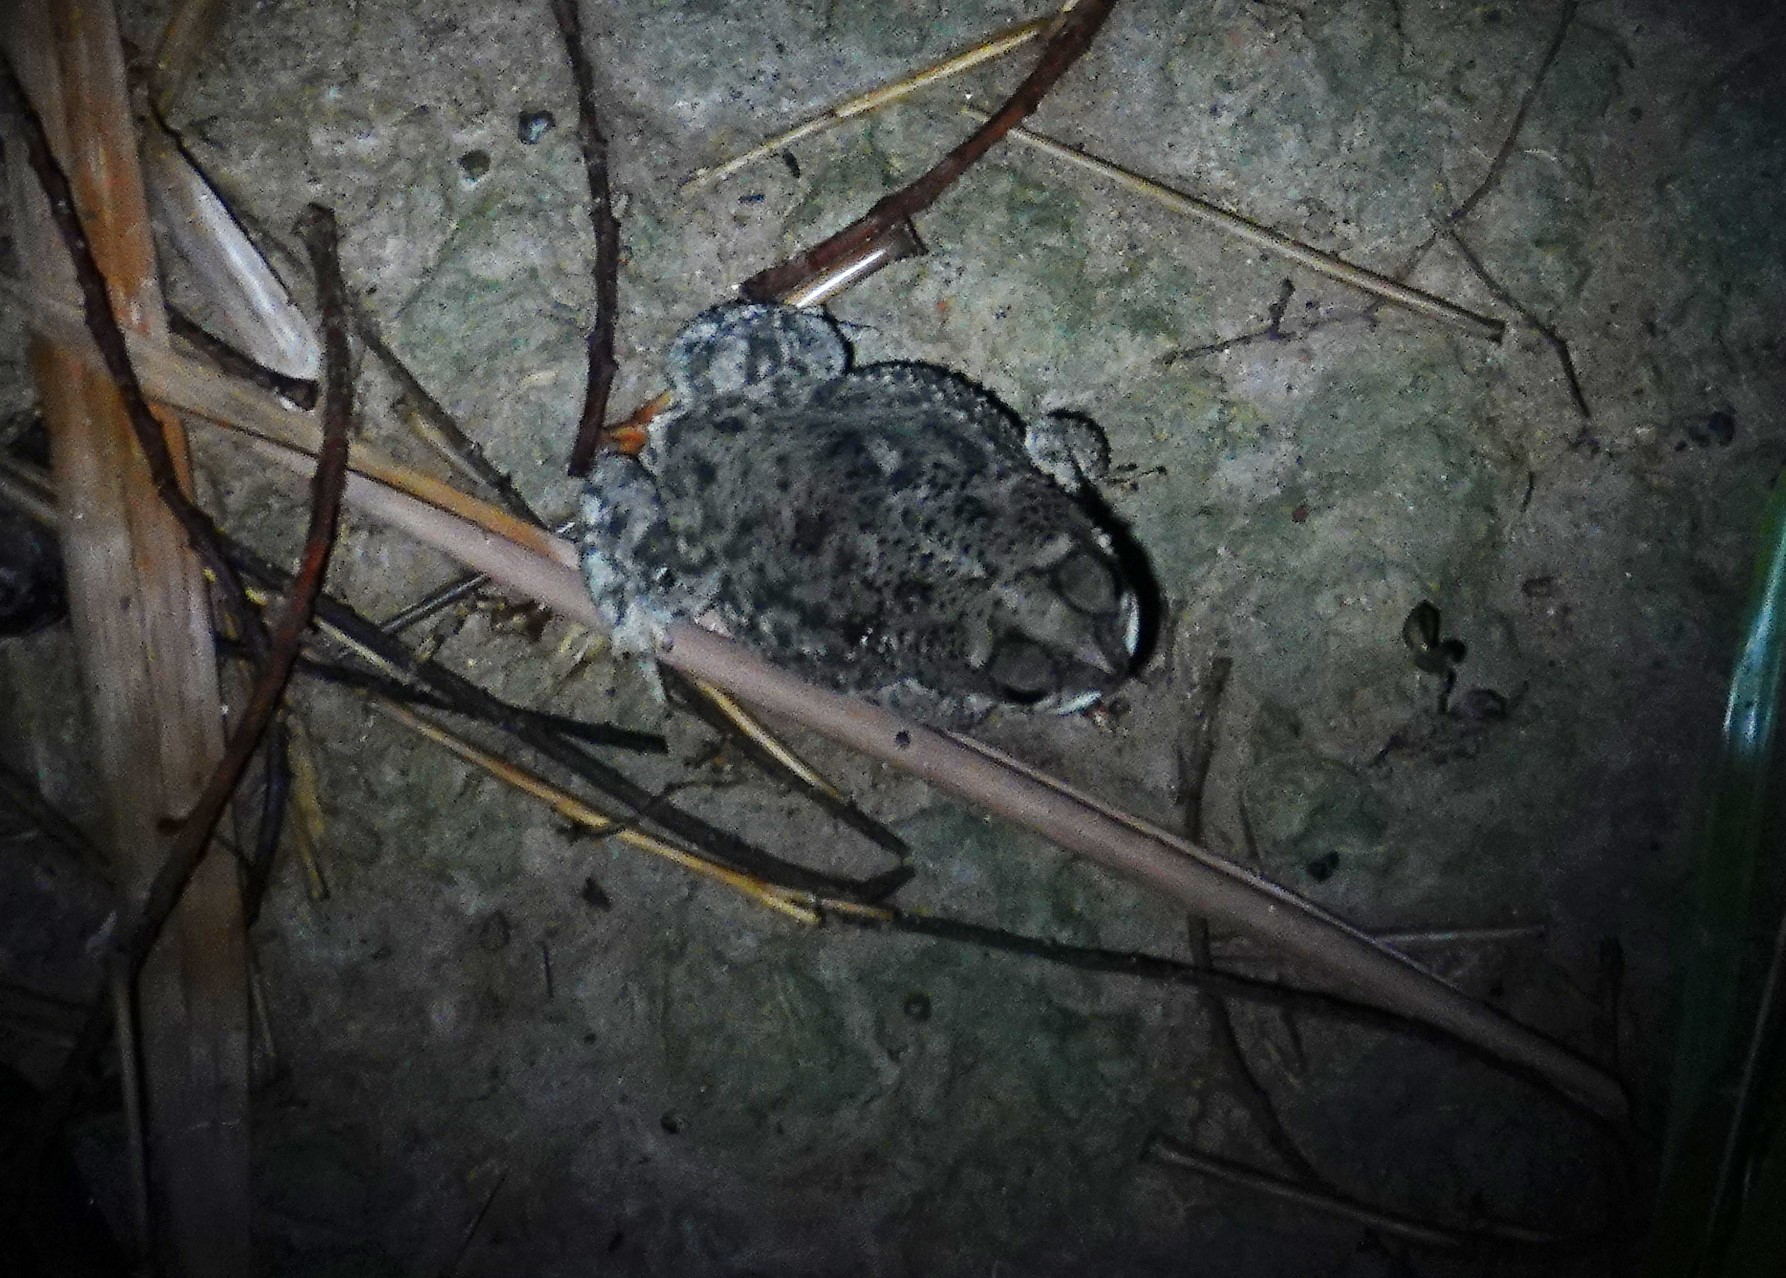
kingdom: Animalia
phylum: Chordata
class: Amphibia
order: Anura
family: Bufonidae
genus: Rhinella
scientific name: Rhinella major
